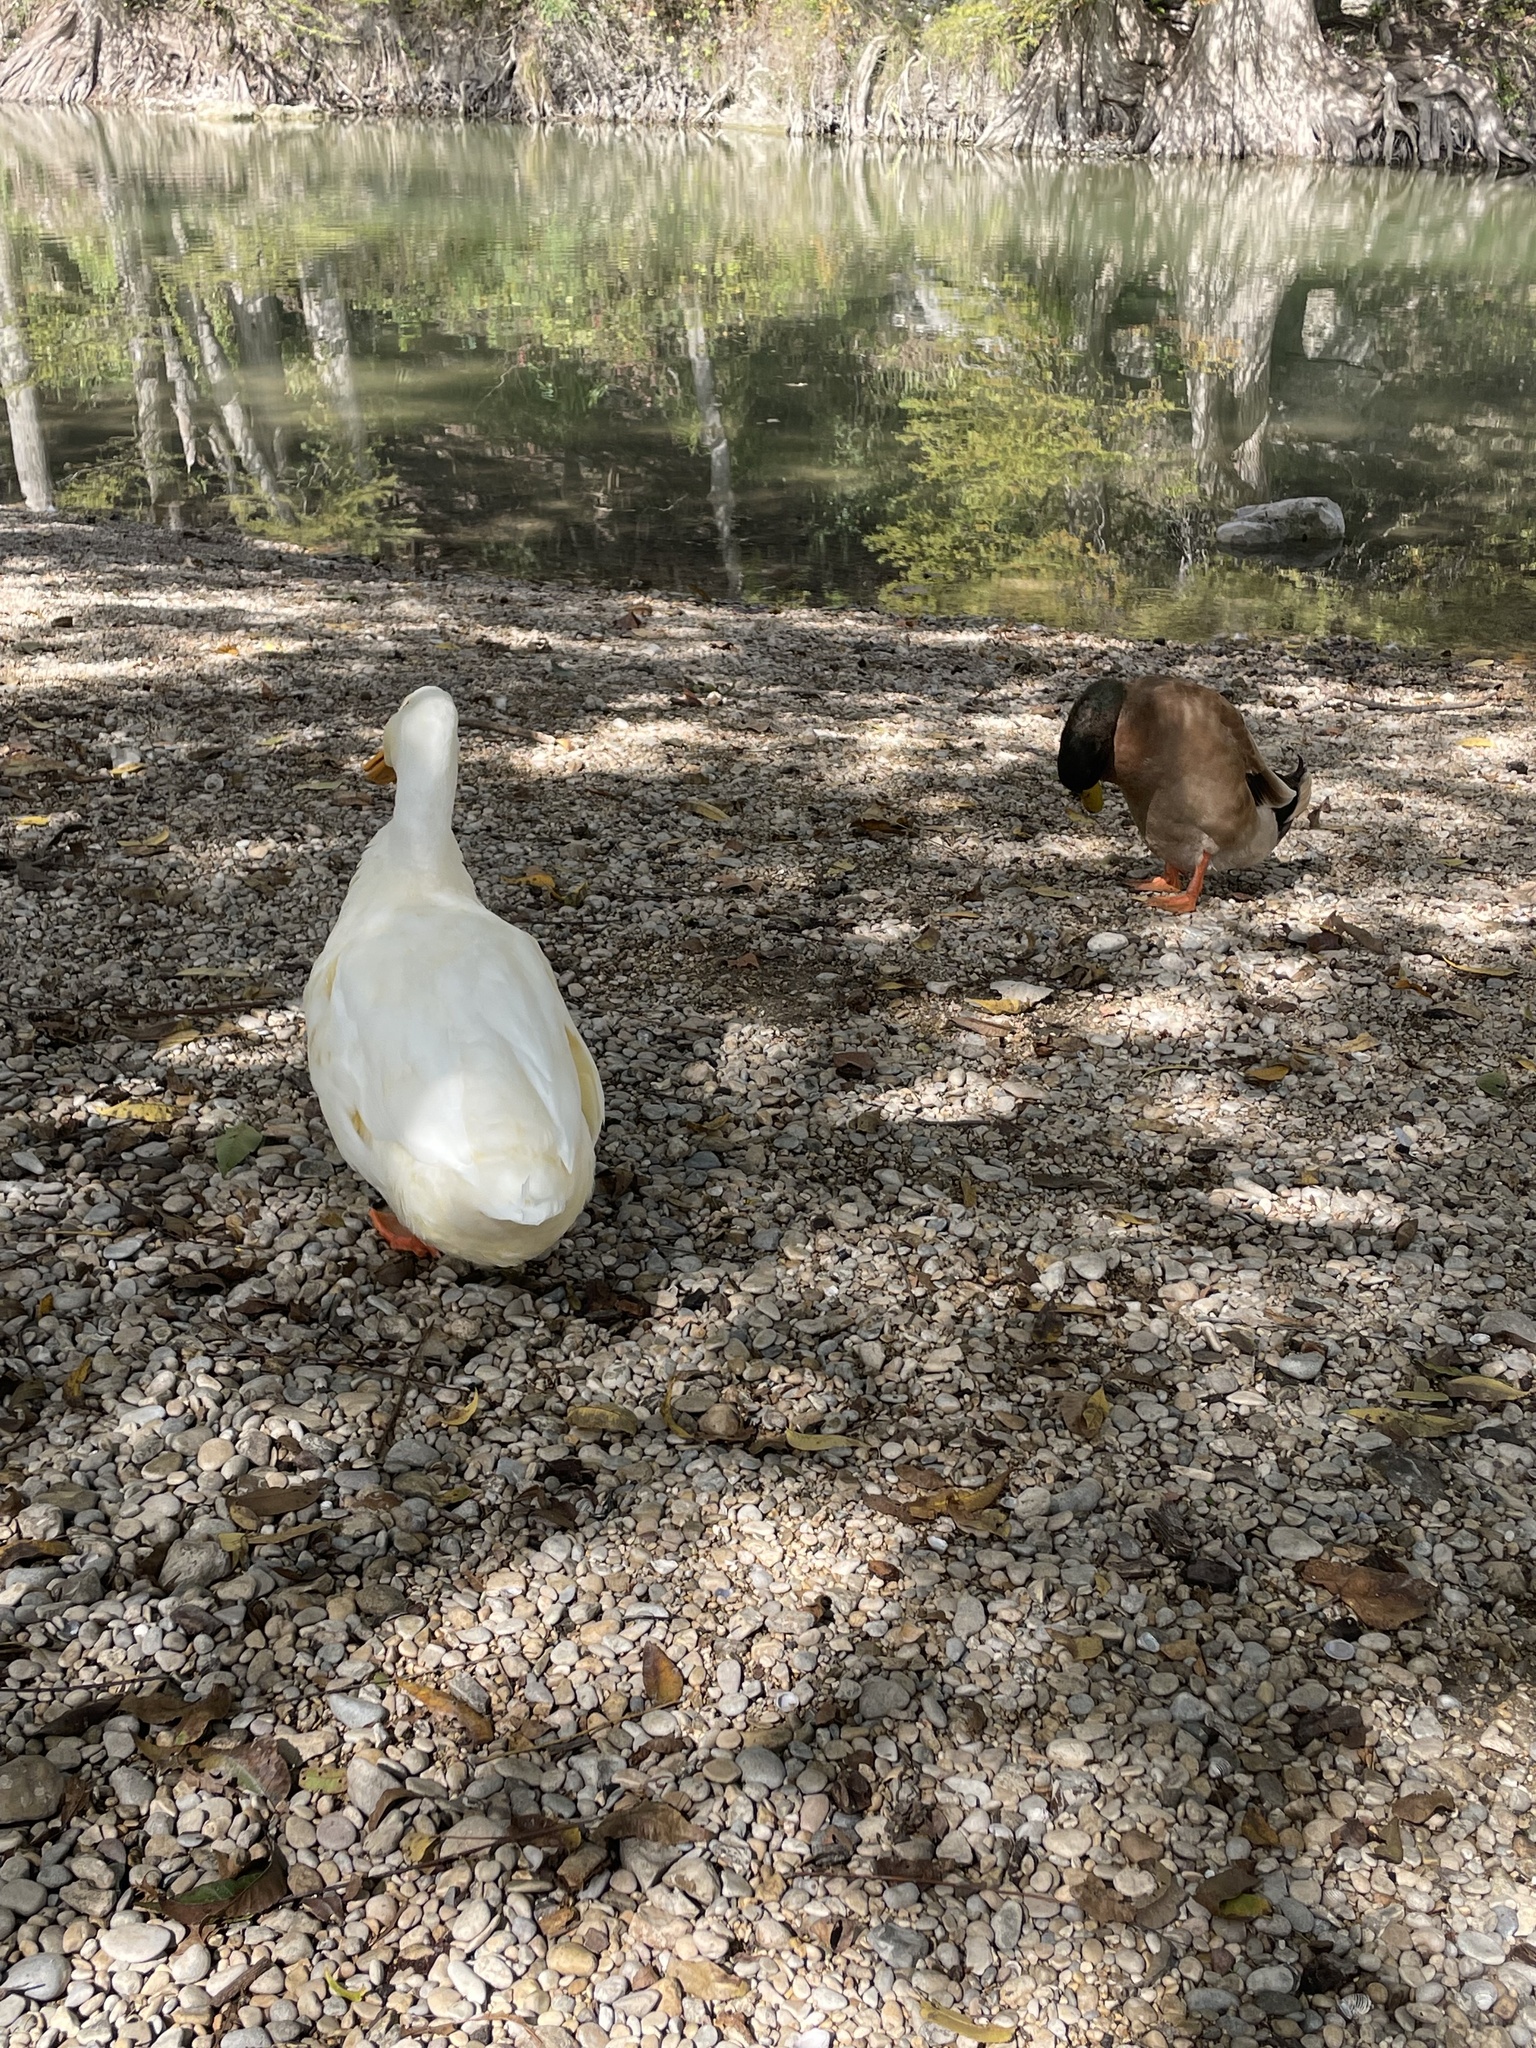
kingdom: Animalia
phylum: Chordata
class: Aves
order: Anseriformes
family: Anatidae
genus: Anas
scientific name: Anas platyrhynchos
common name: Mallard
